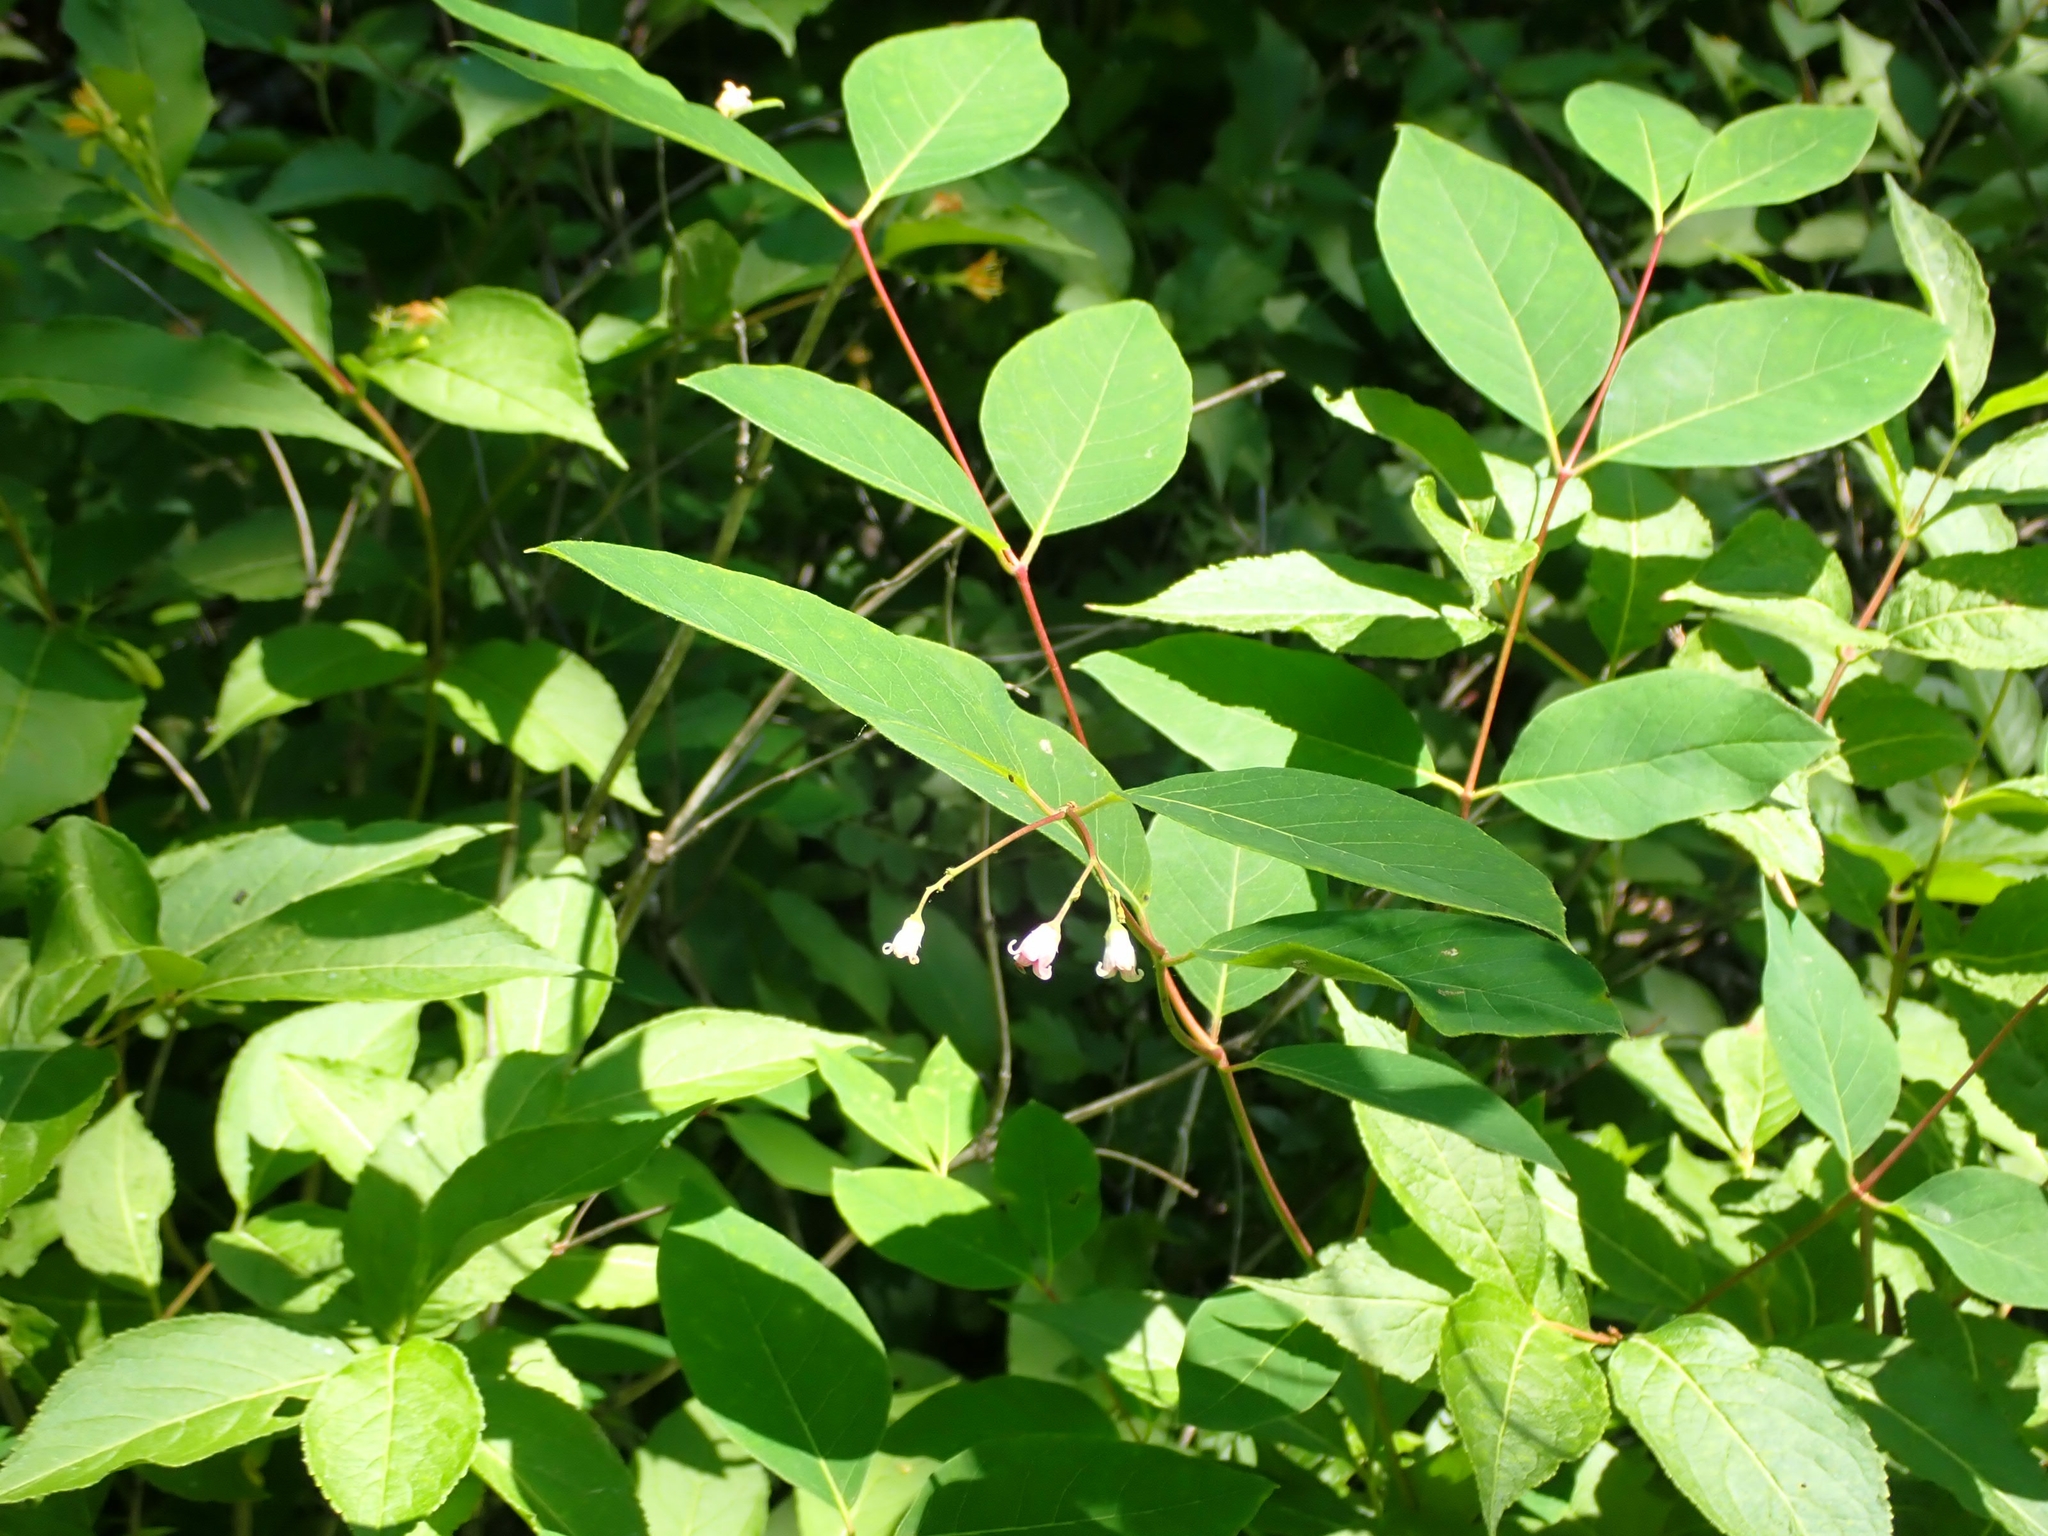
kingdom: Plantae
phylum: Tracheophyta
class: Magnoliopsida
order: Gentianales
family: Apocynaceae
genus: Apocynum
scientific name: Apocynum androsaemifolium
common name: Spreading dogbane
